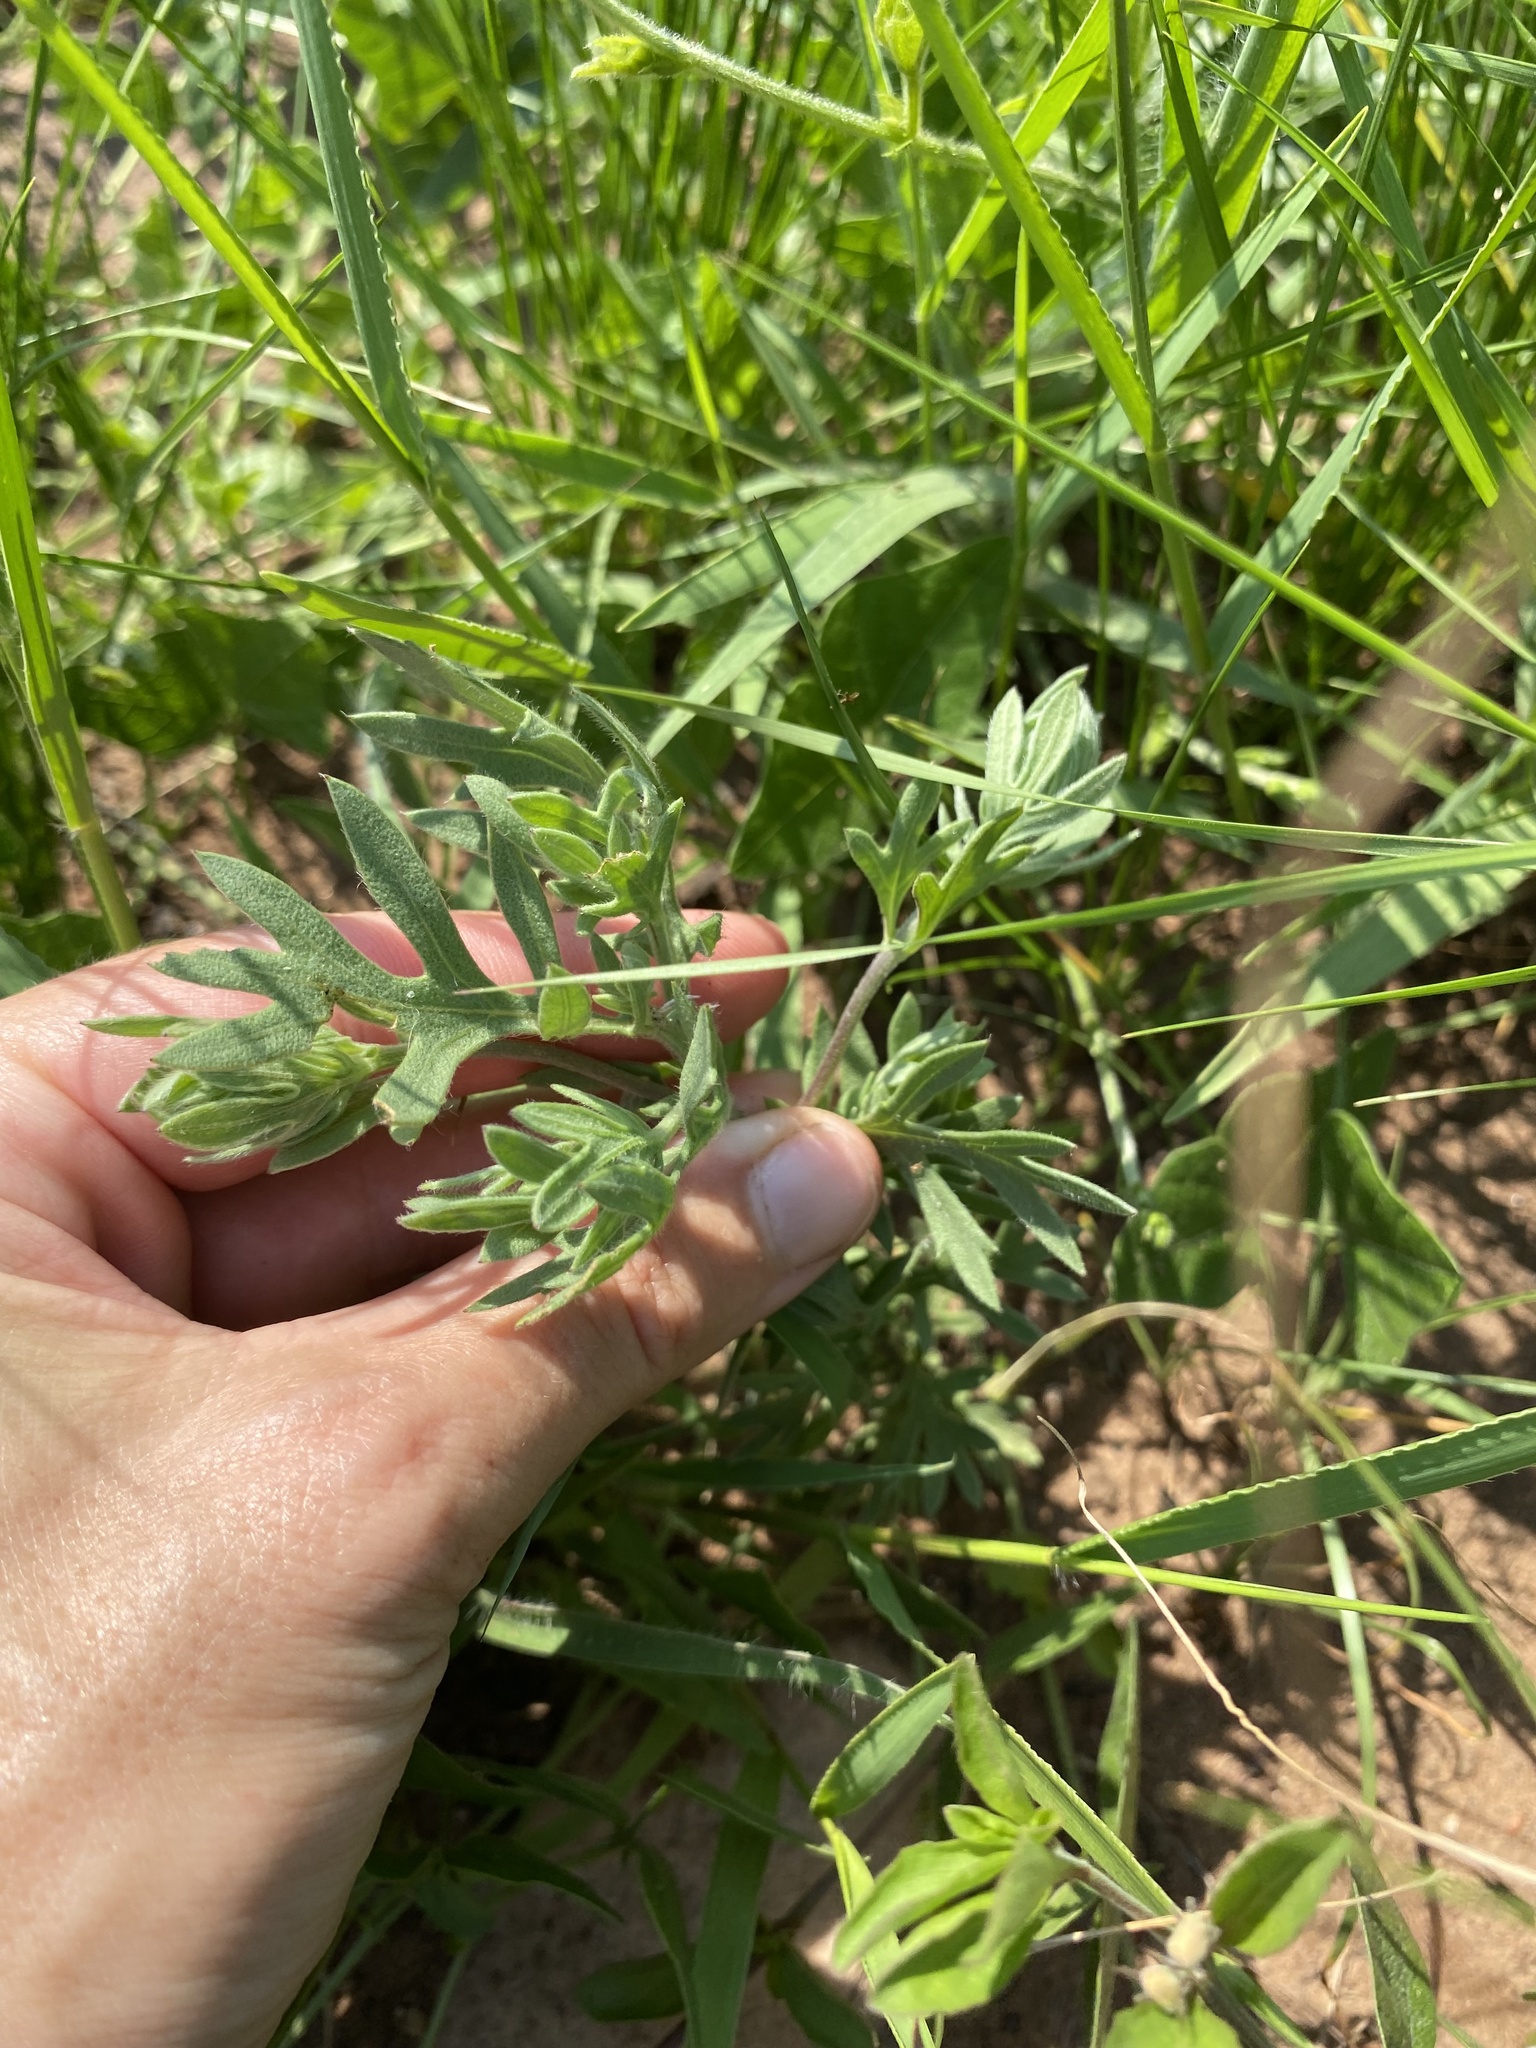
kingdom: Plantae
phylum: Tracheophyta
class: Magnoliopsida
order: Asterales
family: Asteraceae
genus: Schistostephium
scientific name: Schistostephium crataegifolium
